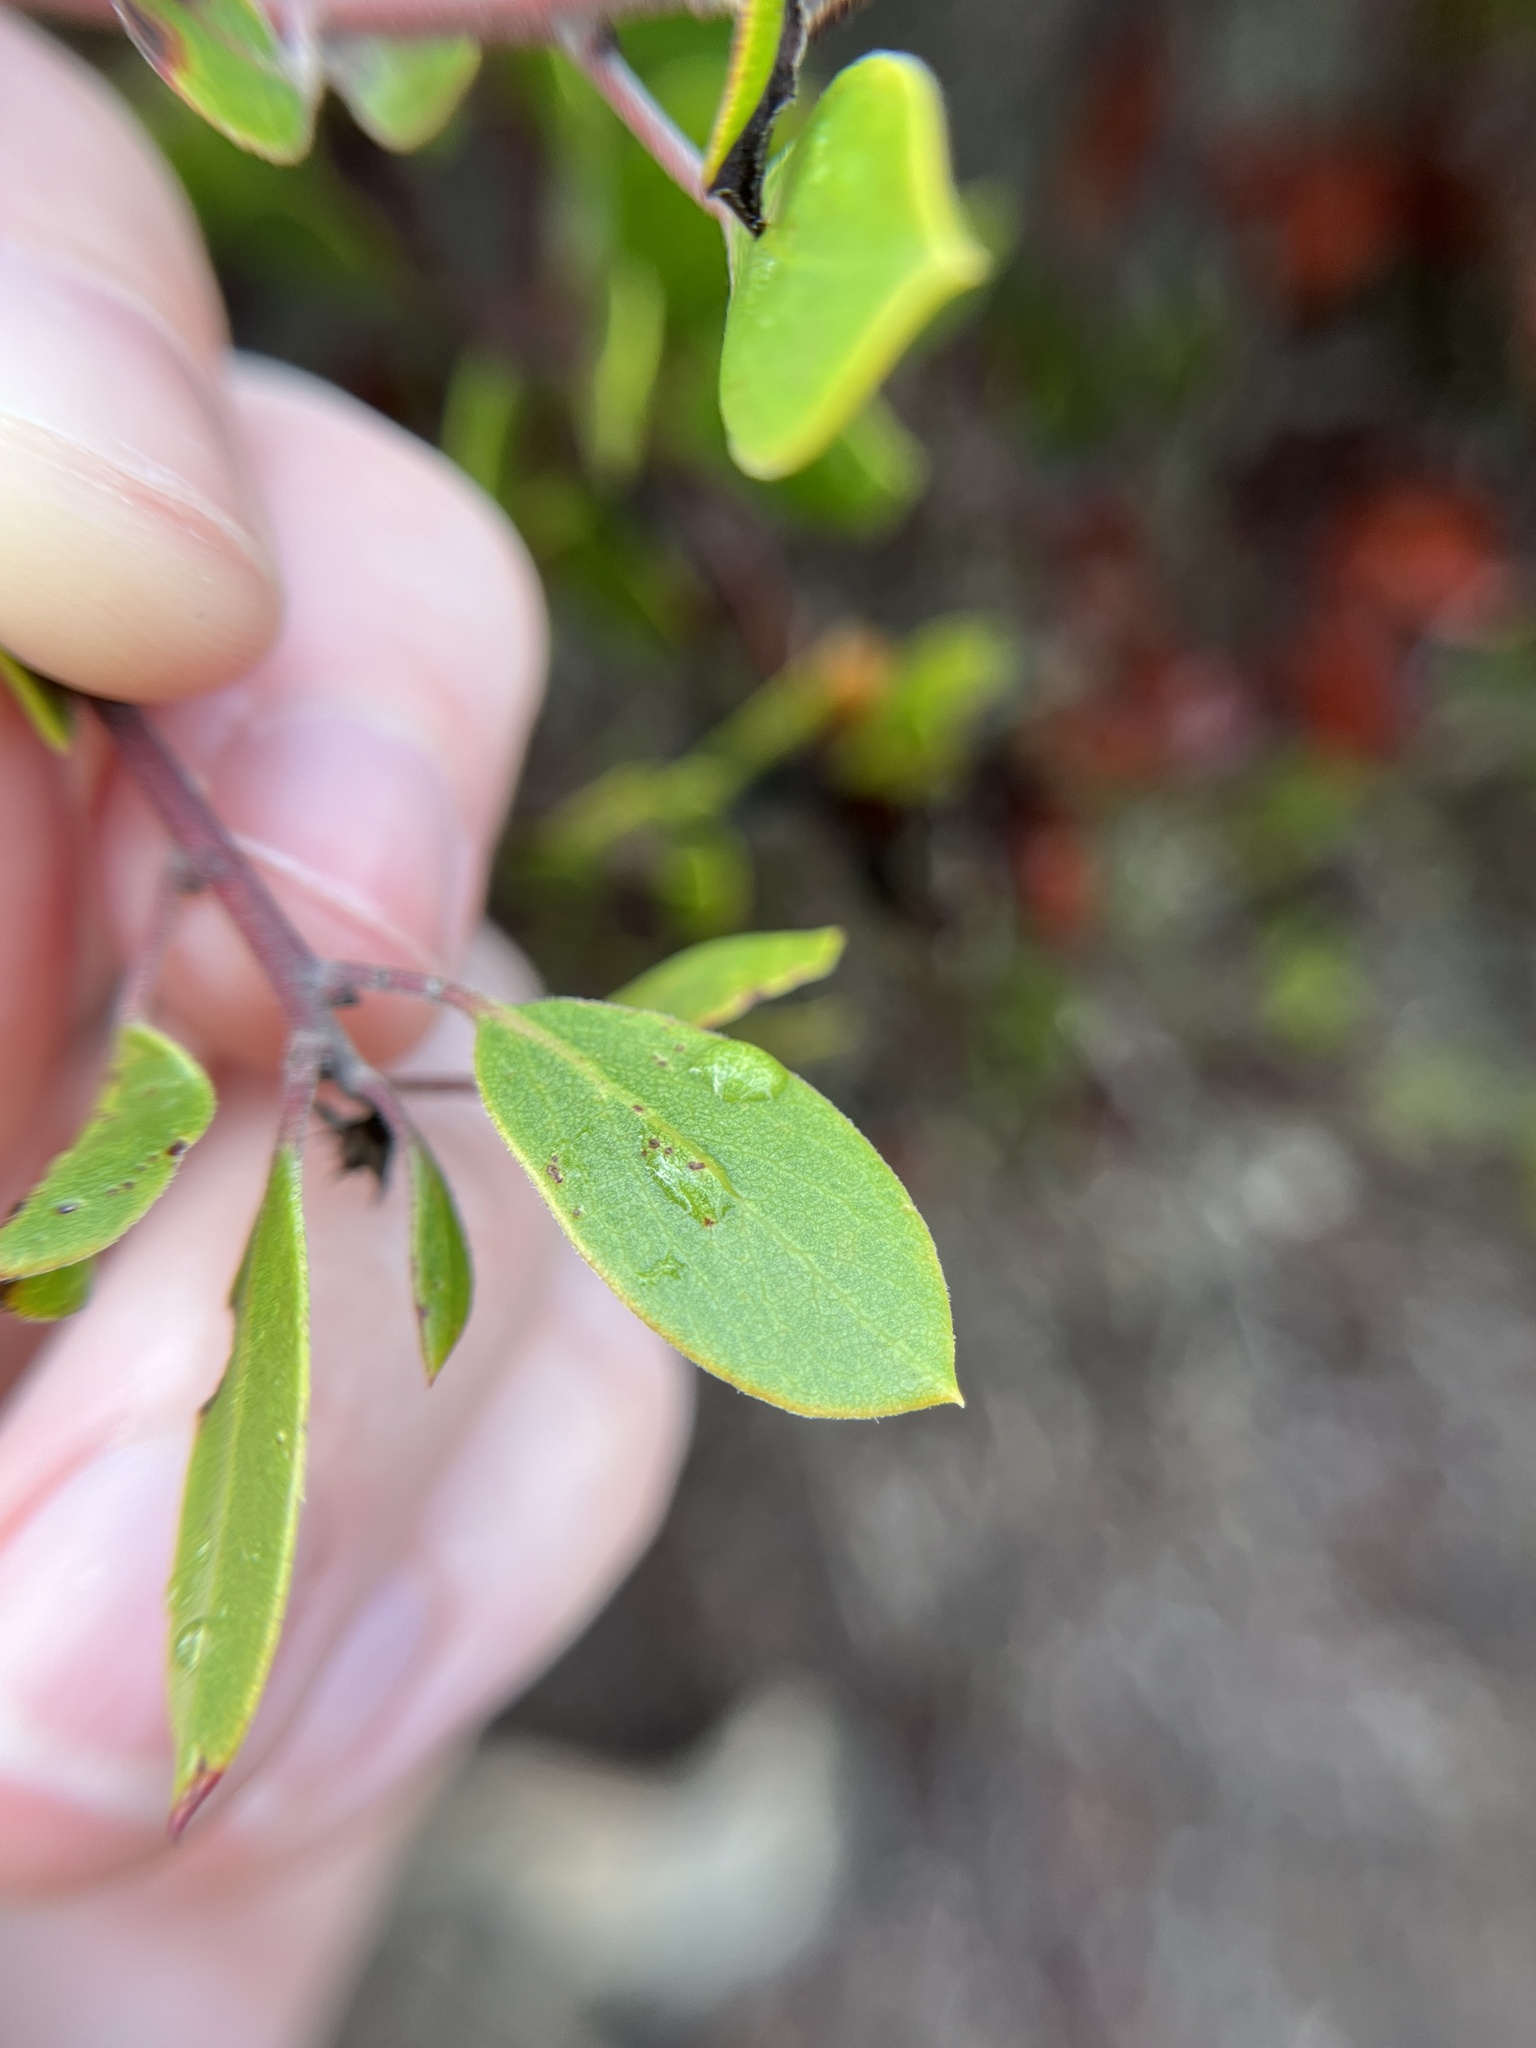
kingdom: Plantae
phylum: Tracheophyta
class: Magnoliopsida
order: Ericales
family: Ericaceae
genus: Arctostaphylos
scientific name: Arctostaphylos hookeri
